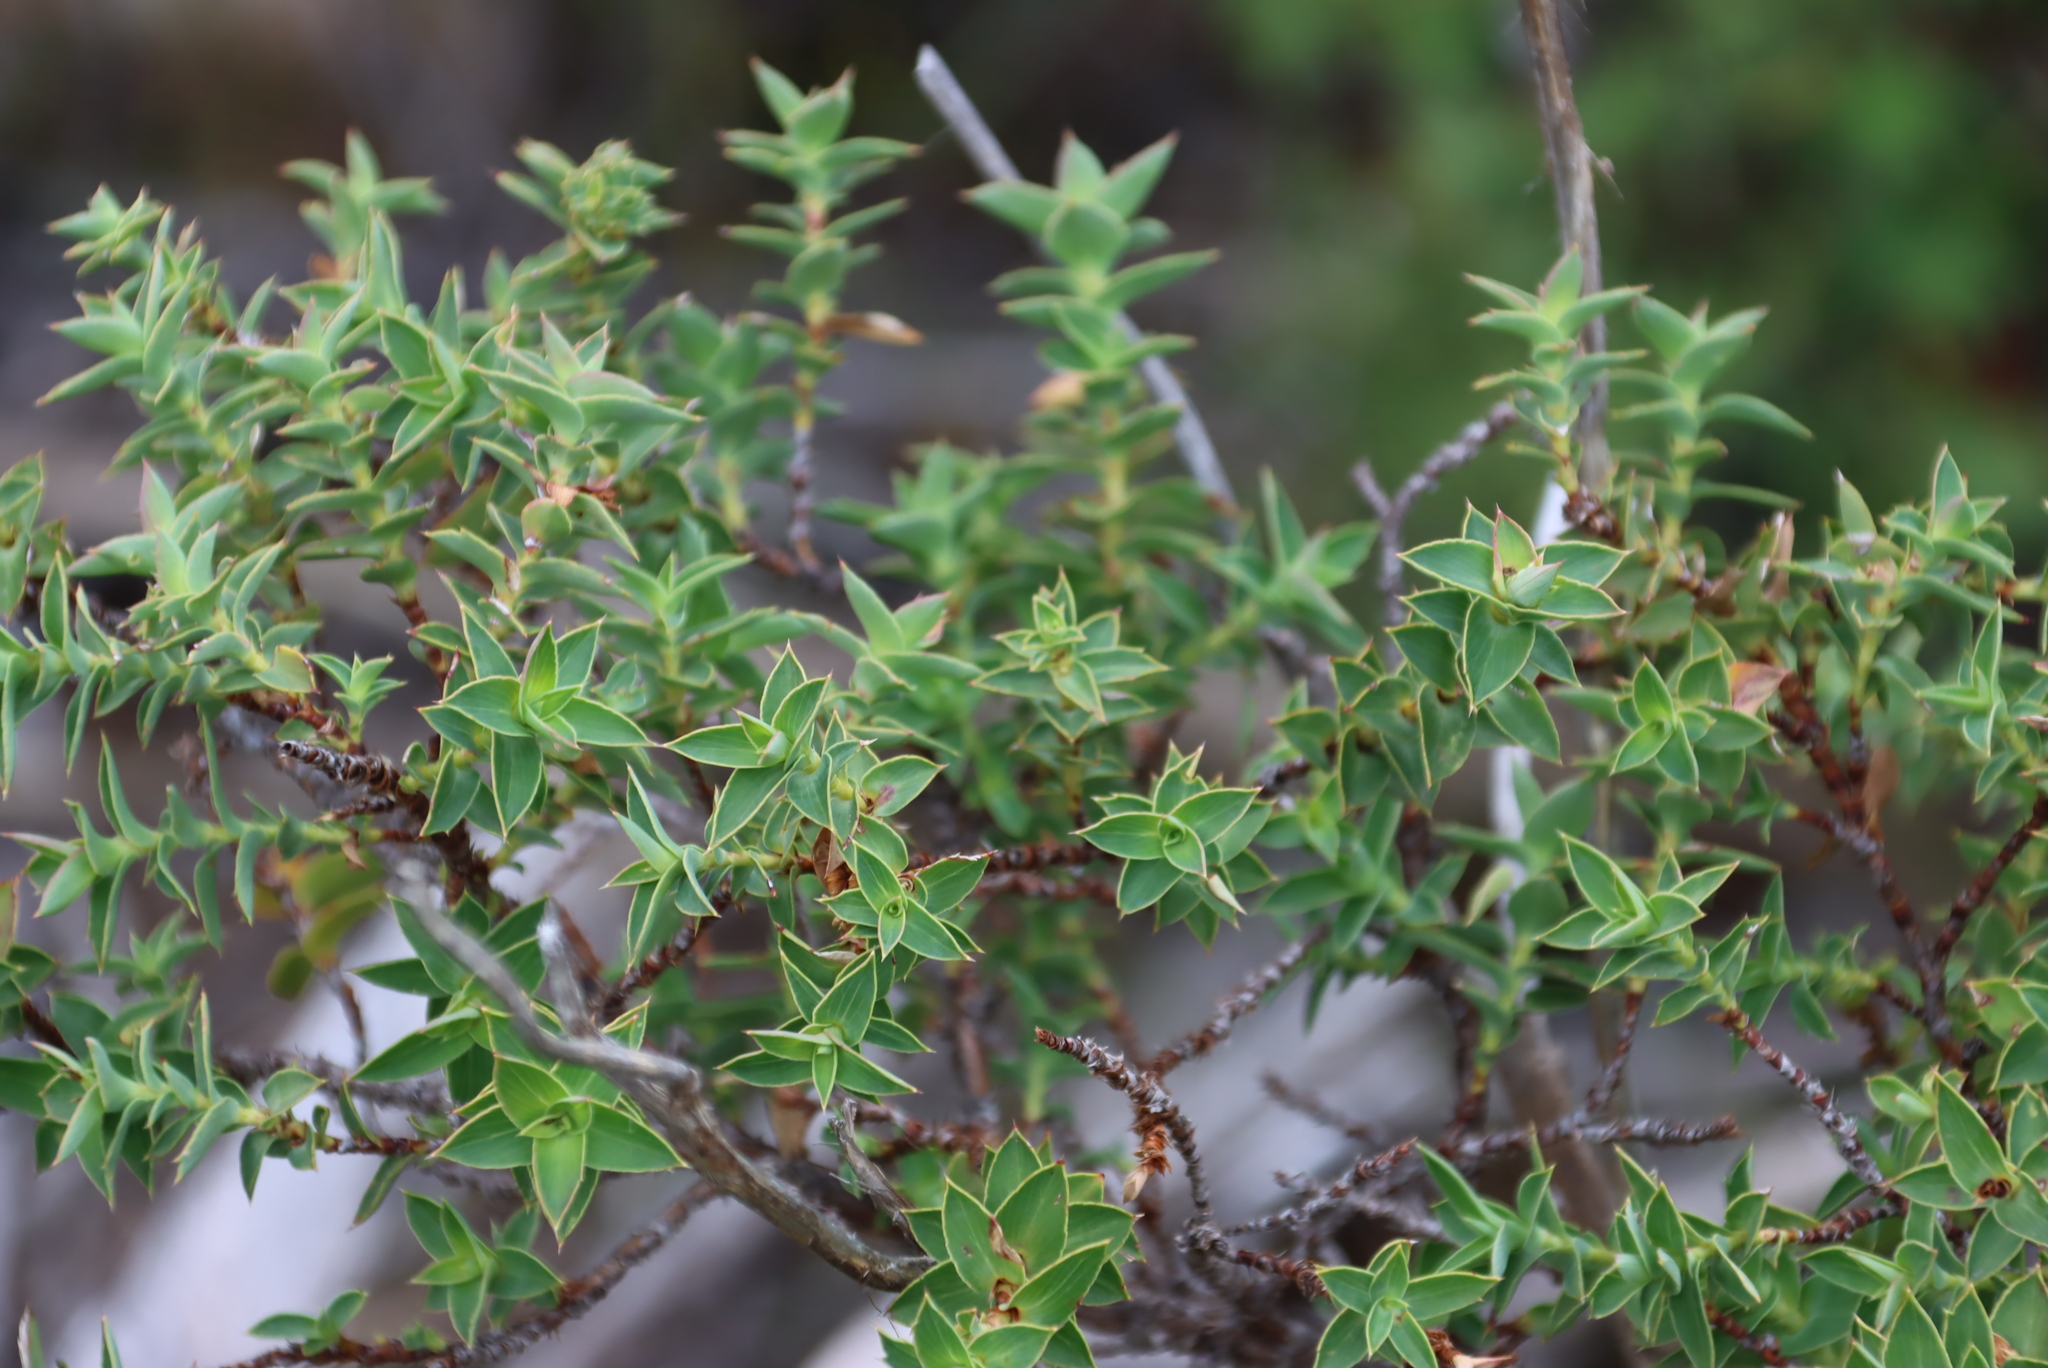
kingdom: Plantae
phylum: Tracheophyta
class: Magnoliopsida
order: Rosales
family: Rosaceae
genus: Cliffortia
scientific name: Cliffortia ilicifolia
